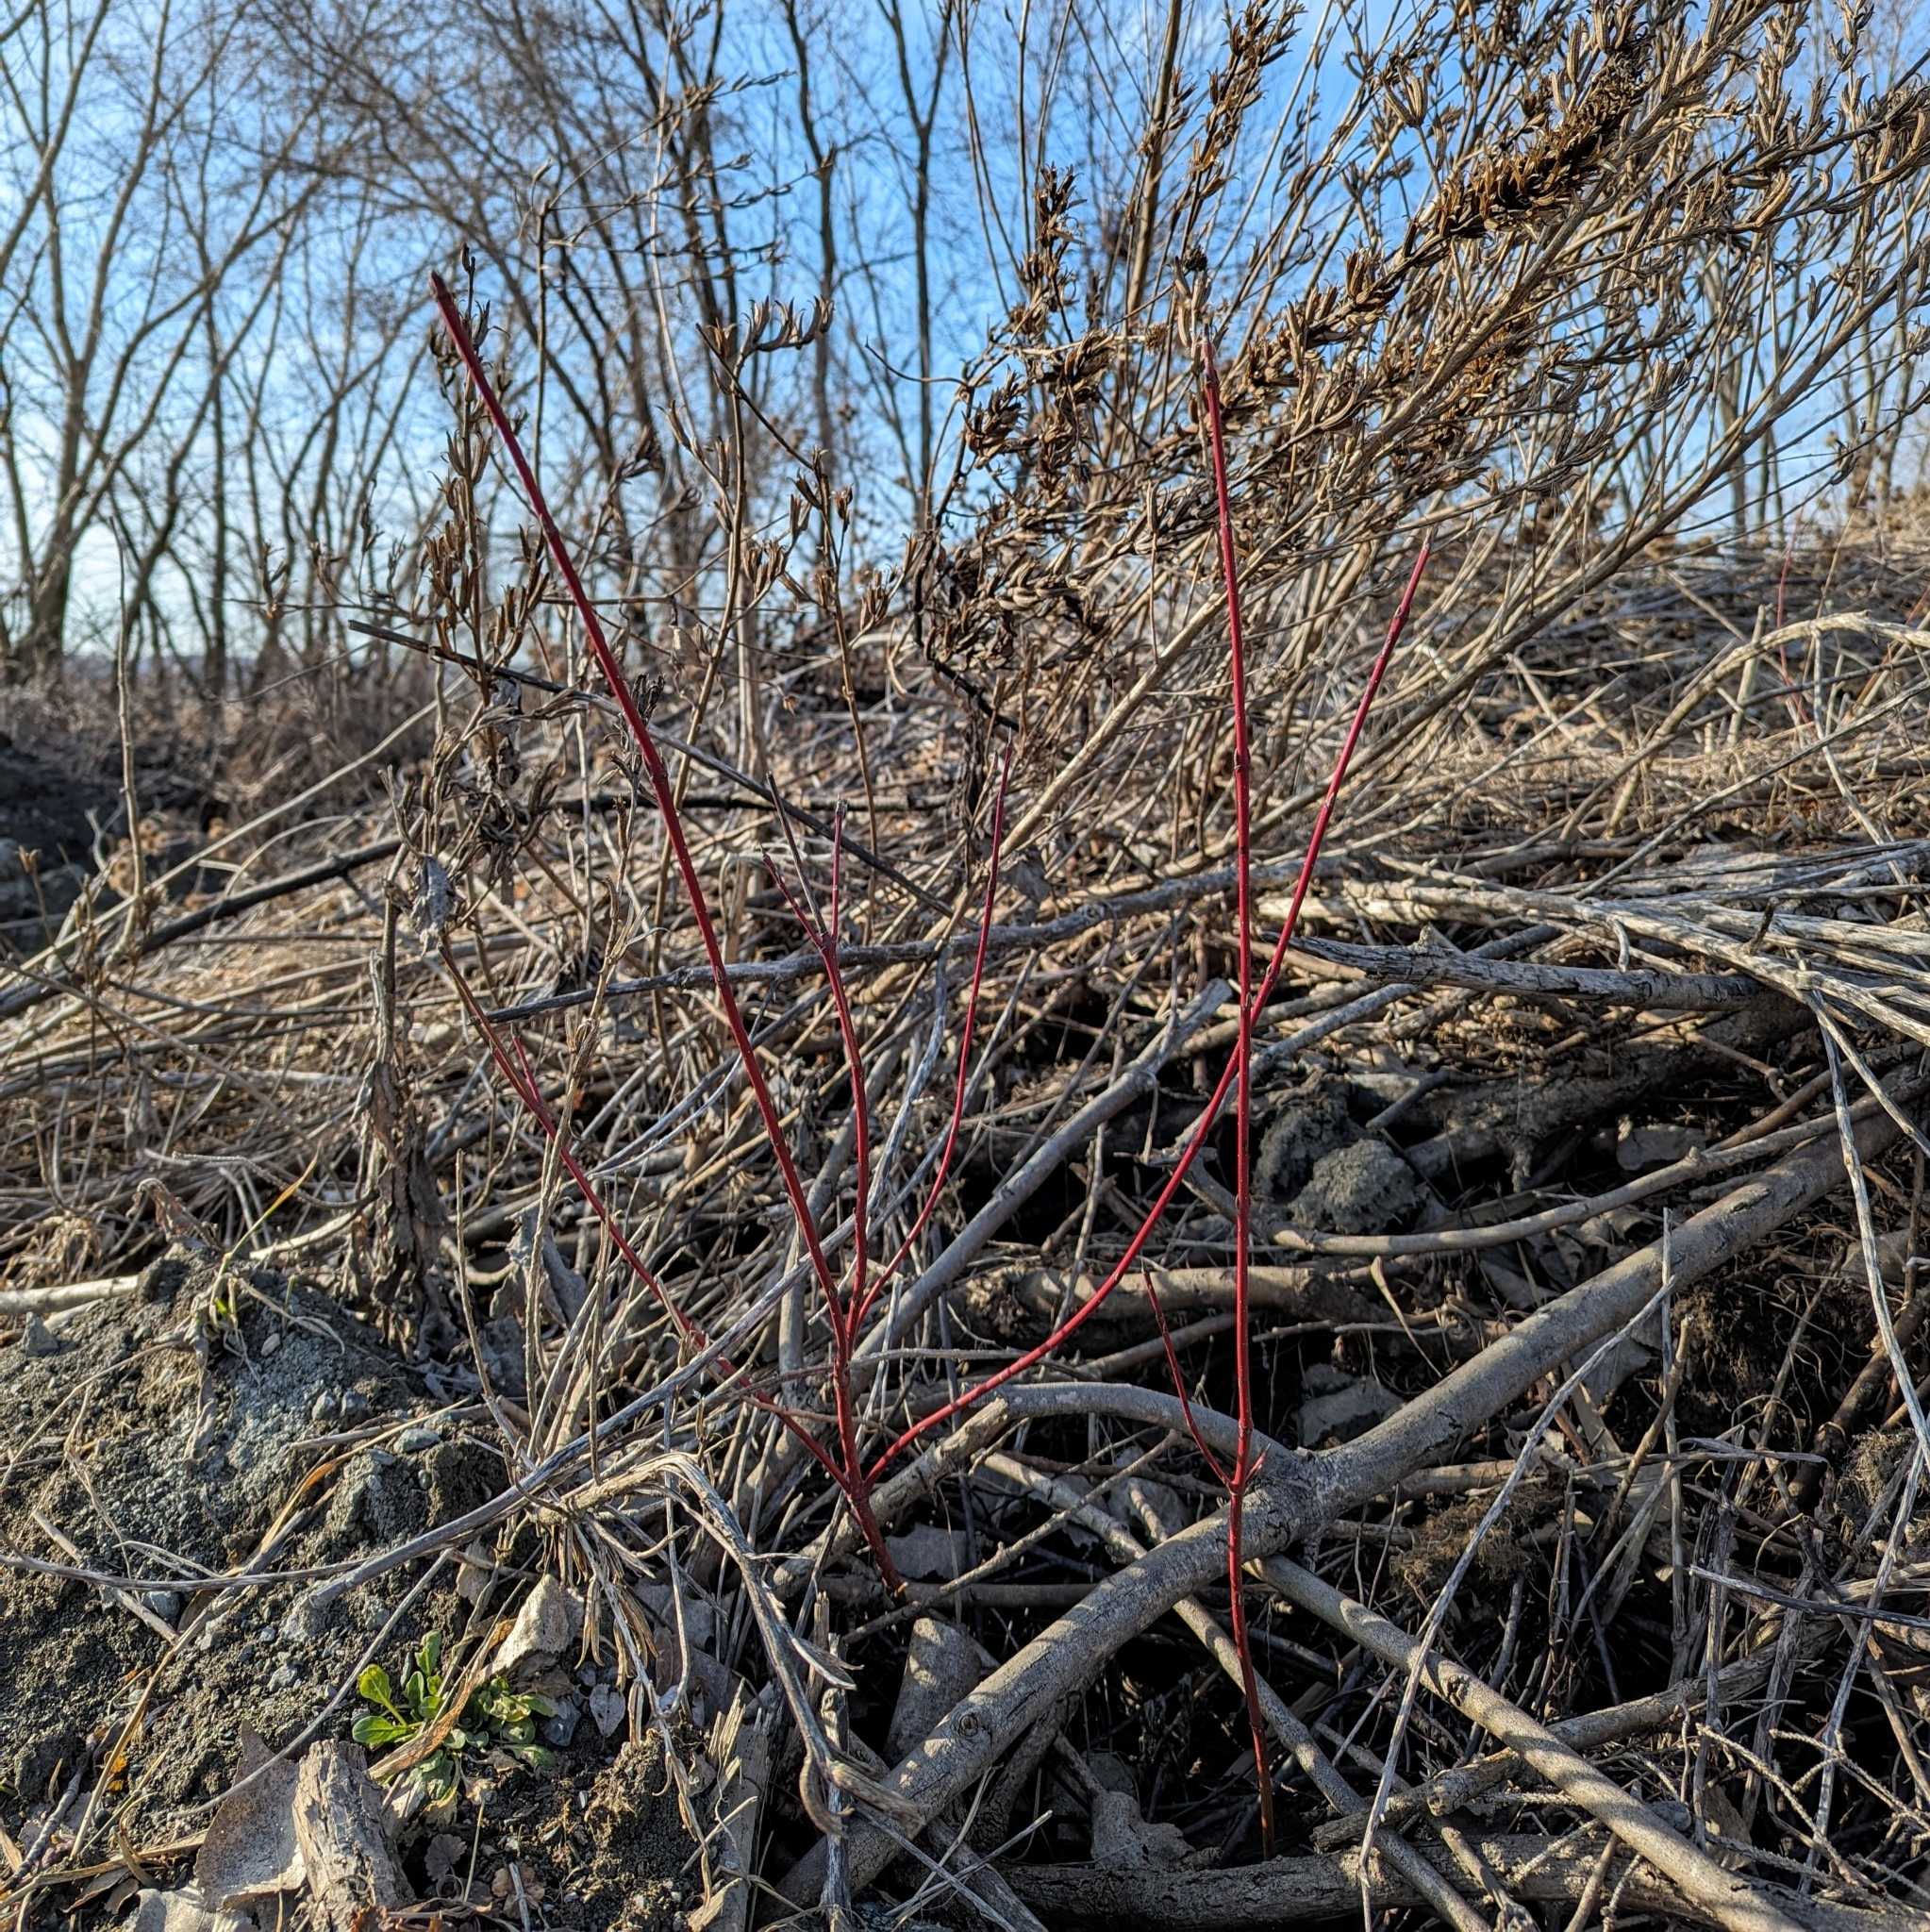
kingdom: Plantae
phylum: Tracheophyta
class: Magnoliopsida
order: Cornales
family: Cornaceae
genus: Cornus
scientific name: Cornus sericea
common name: Red-osier dogwood
